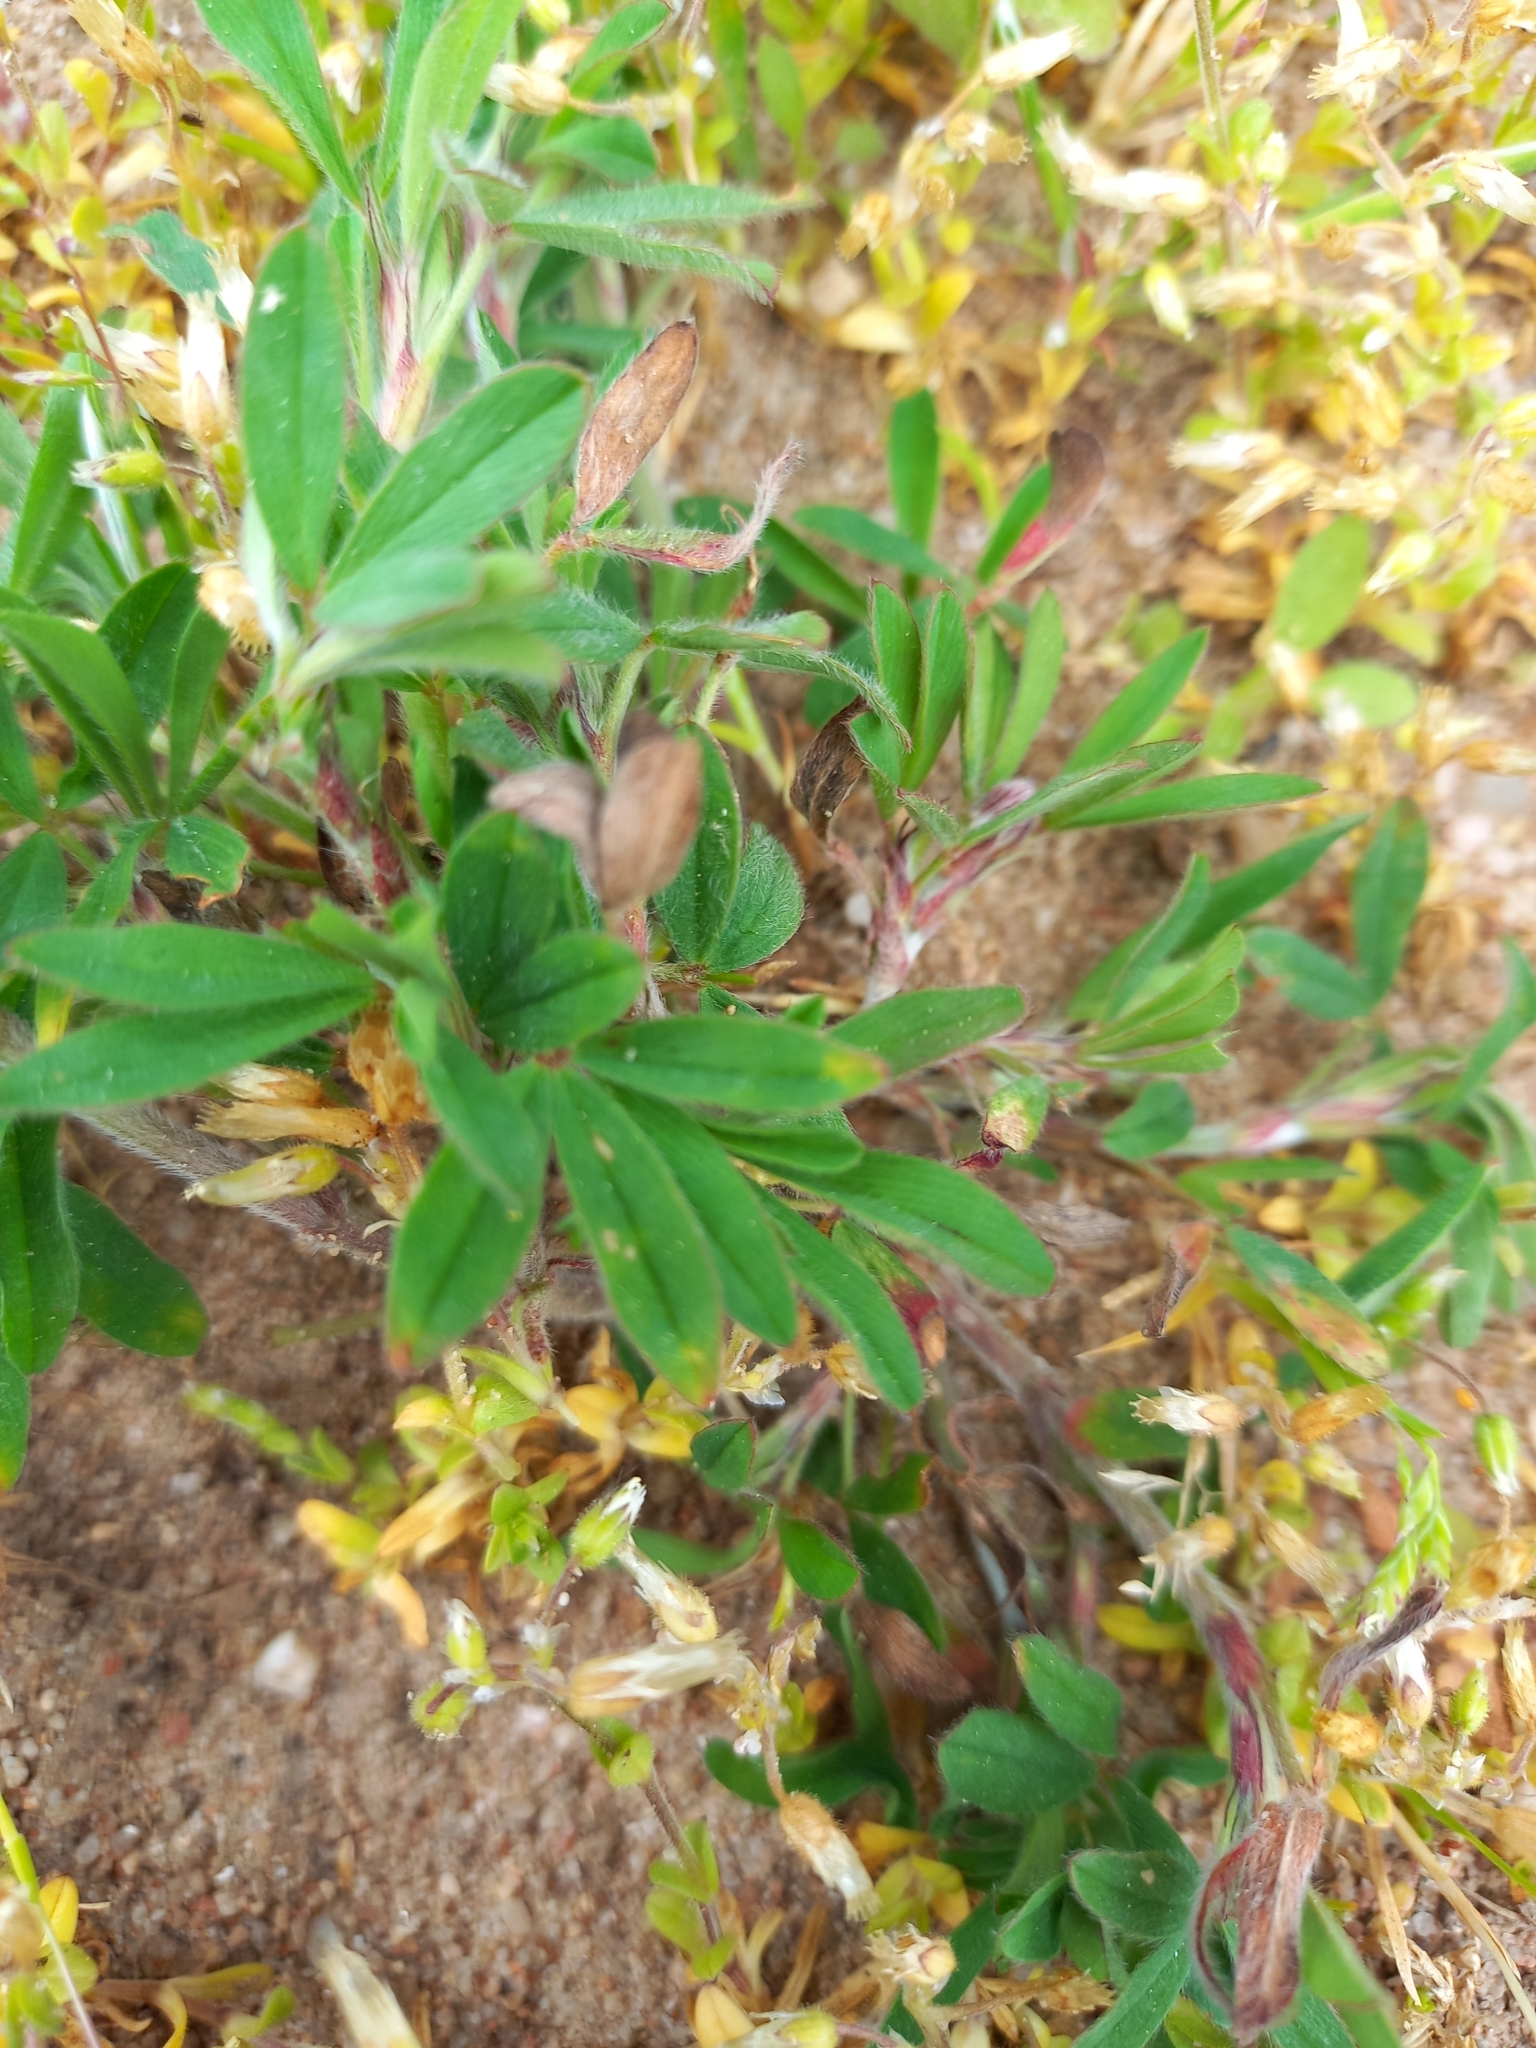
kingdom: Plantae
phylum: Tracheophyta
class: Magnoliopsida
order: Fabales
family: Fabaceae
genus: Trifolium
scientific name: Trifolium arvense
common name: Hare's-foot clover
